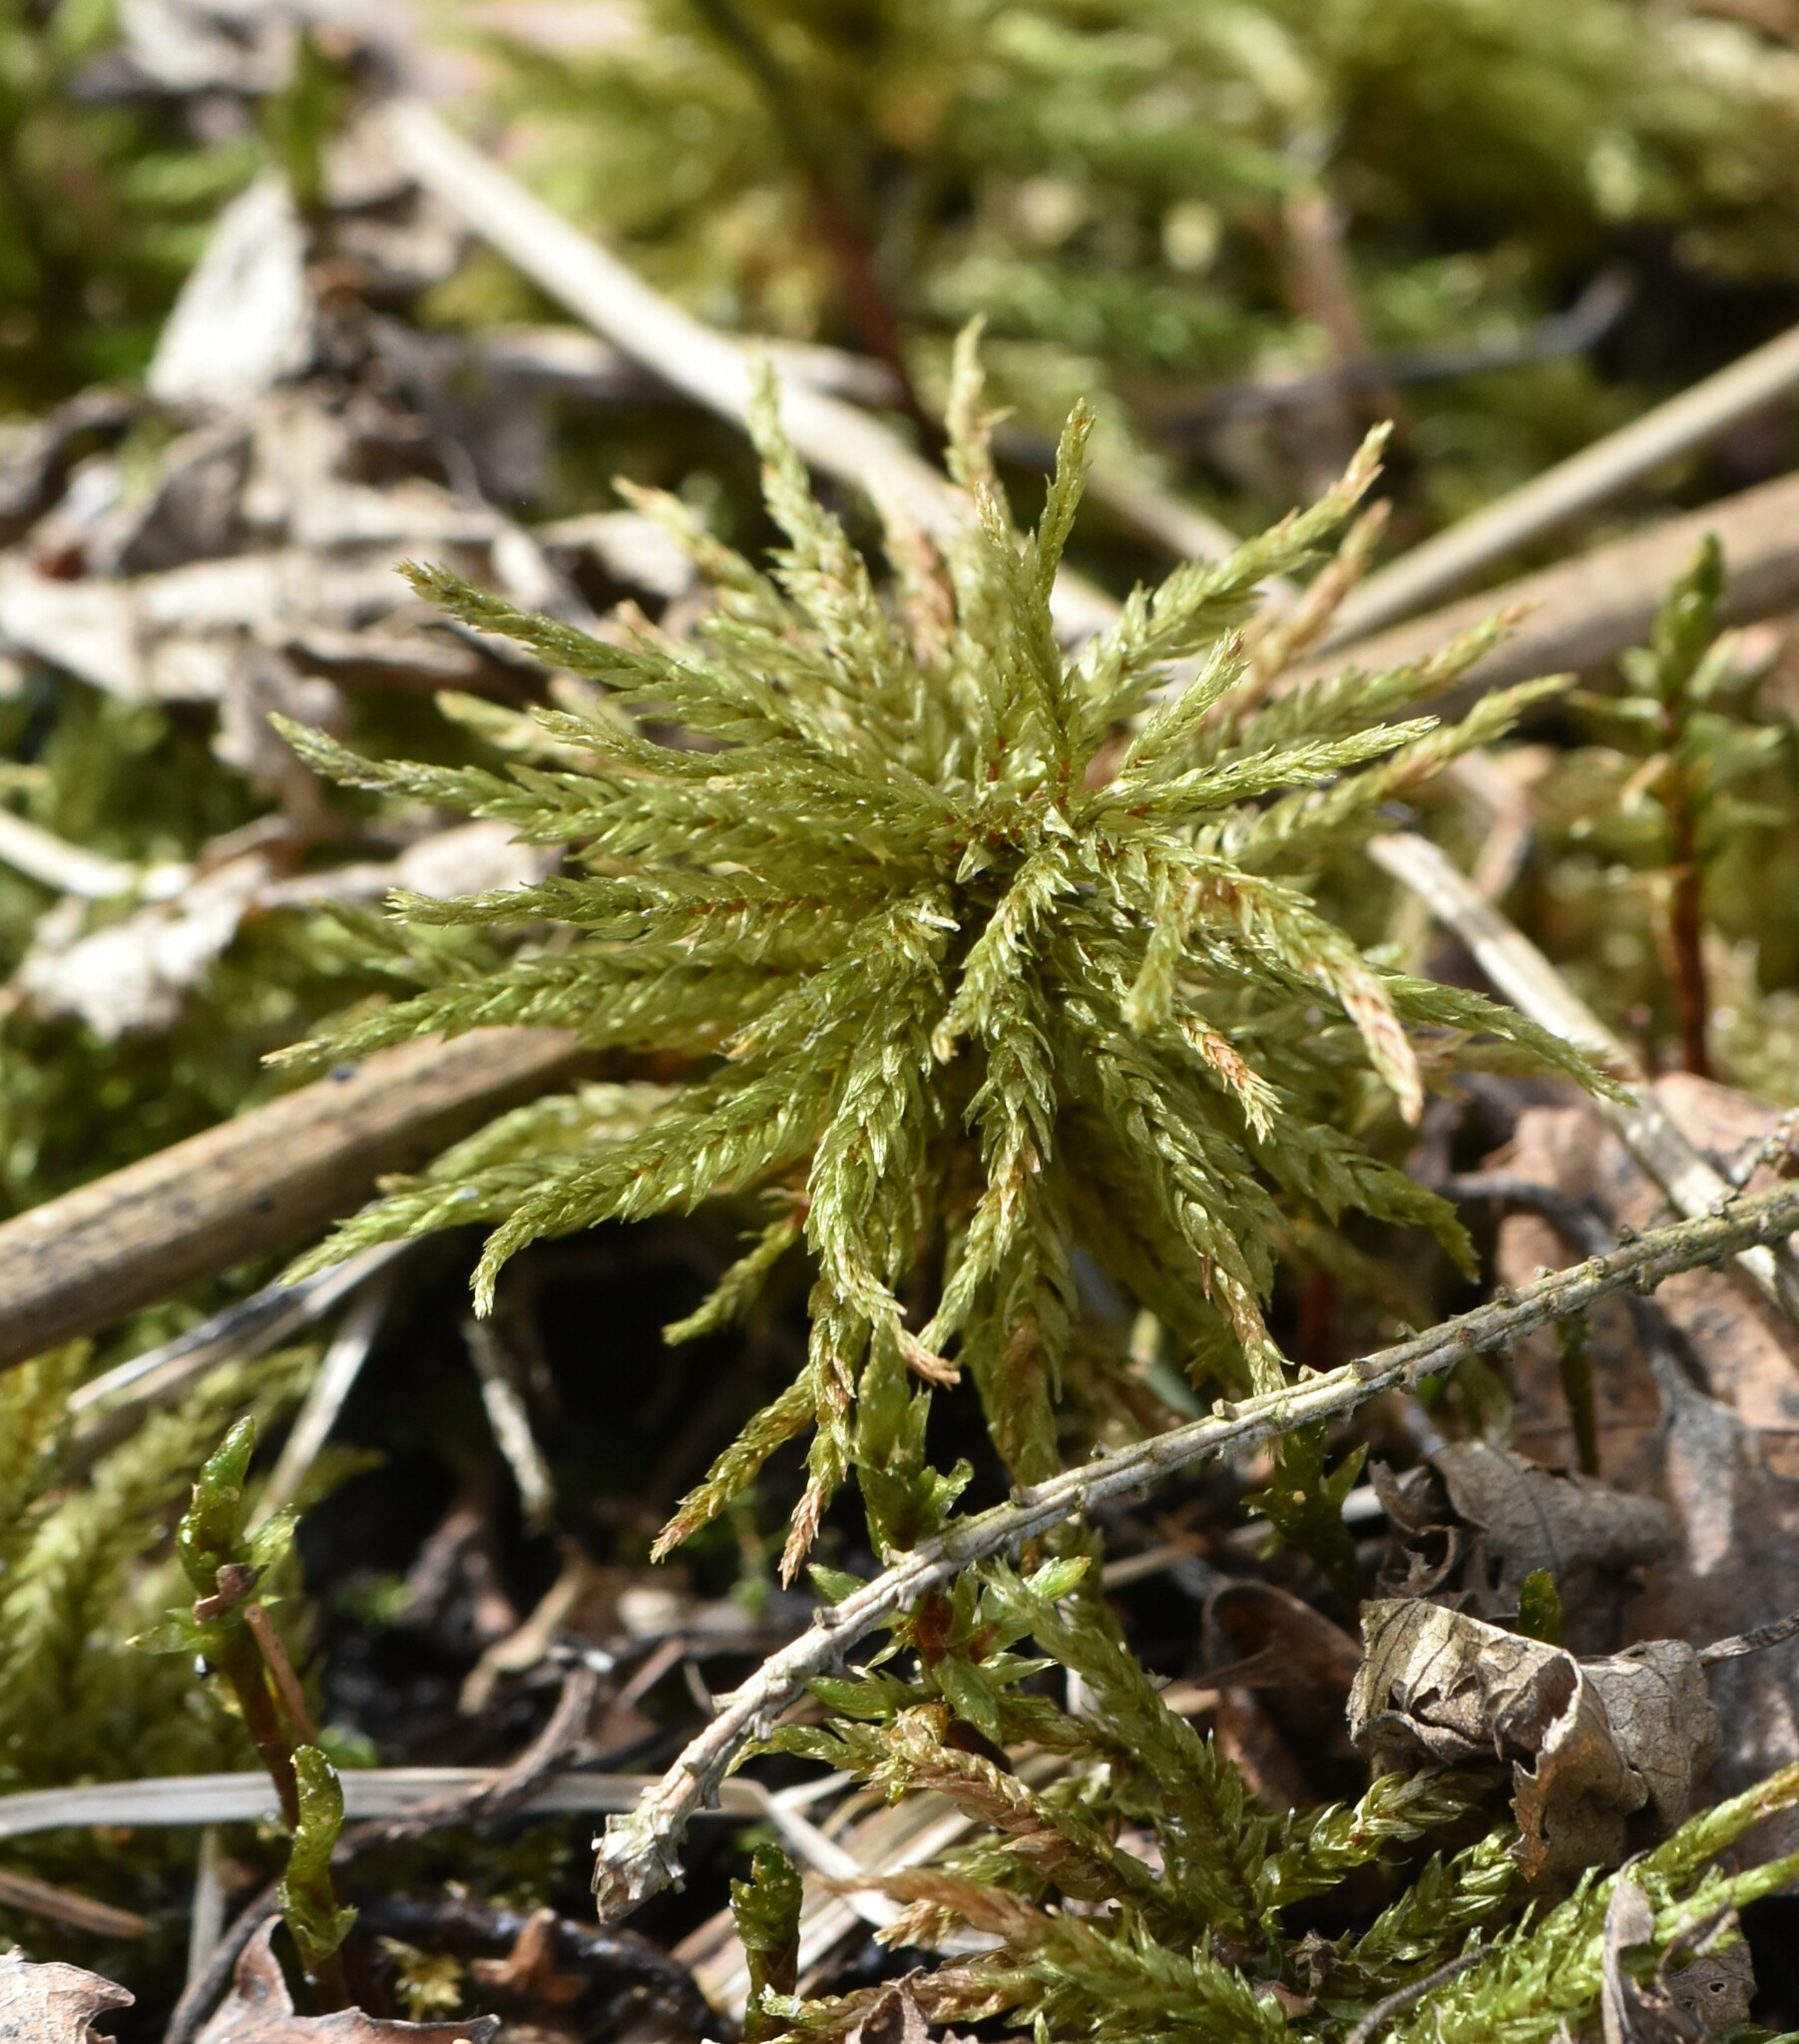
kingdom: Plantae
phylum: Bryophyta
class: Bryopsida
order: Hypnales
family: Climaciaceae
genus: Climacium
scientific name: Climacium dendroides
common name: Northern tree moss
